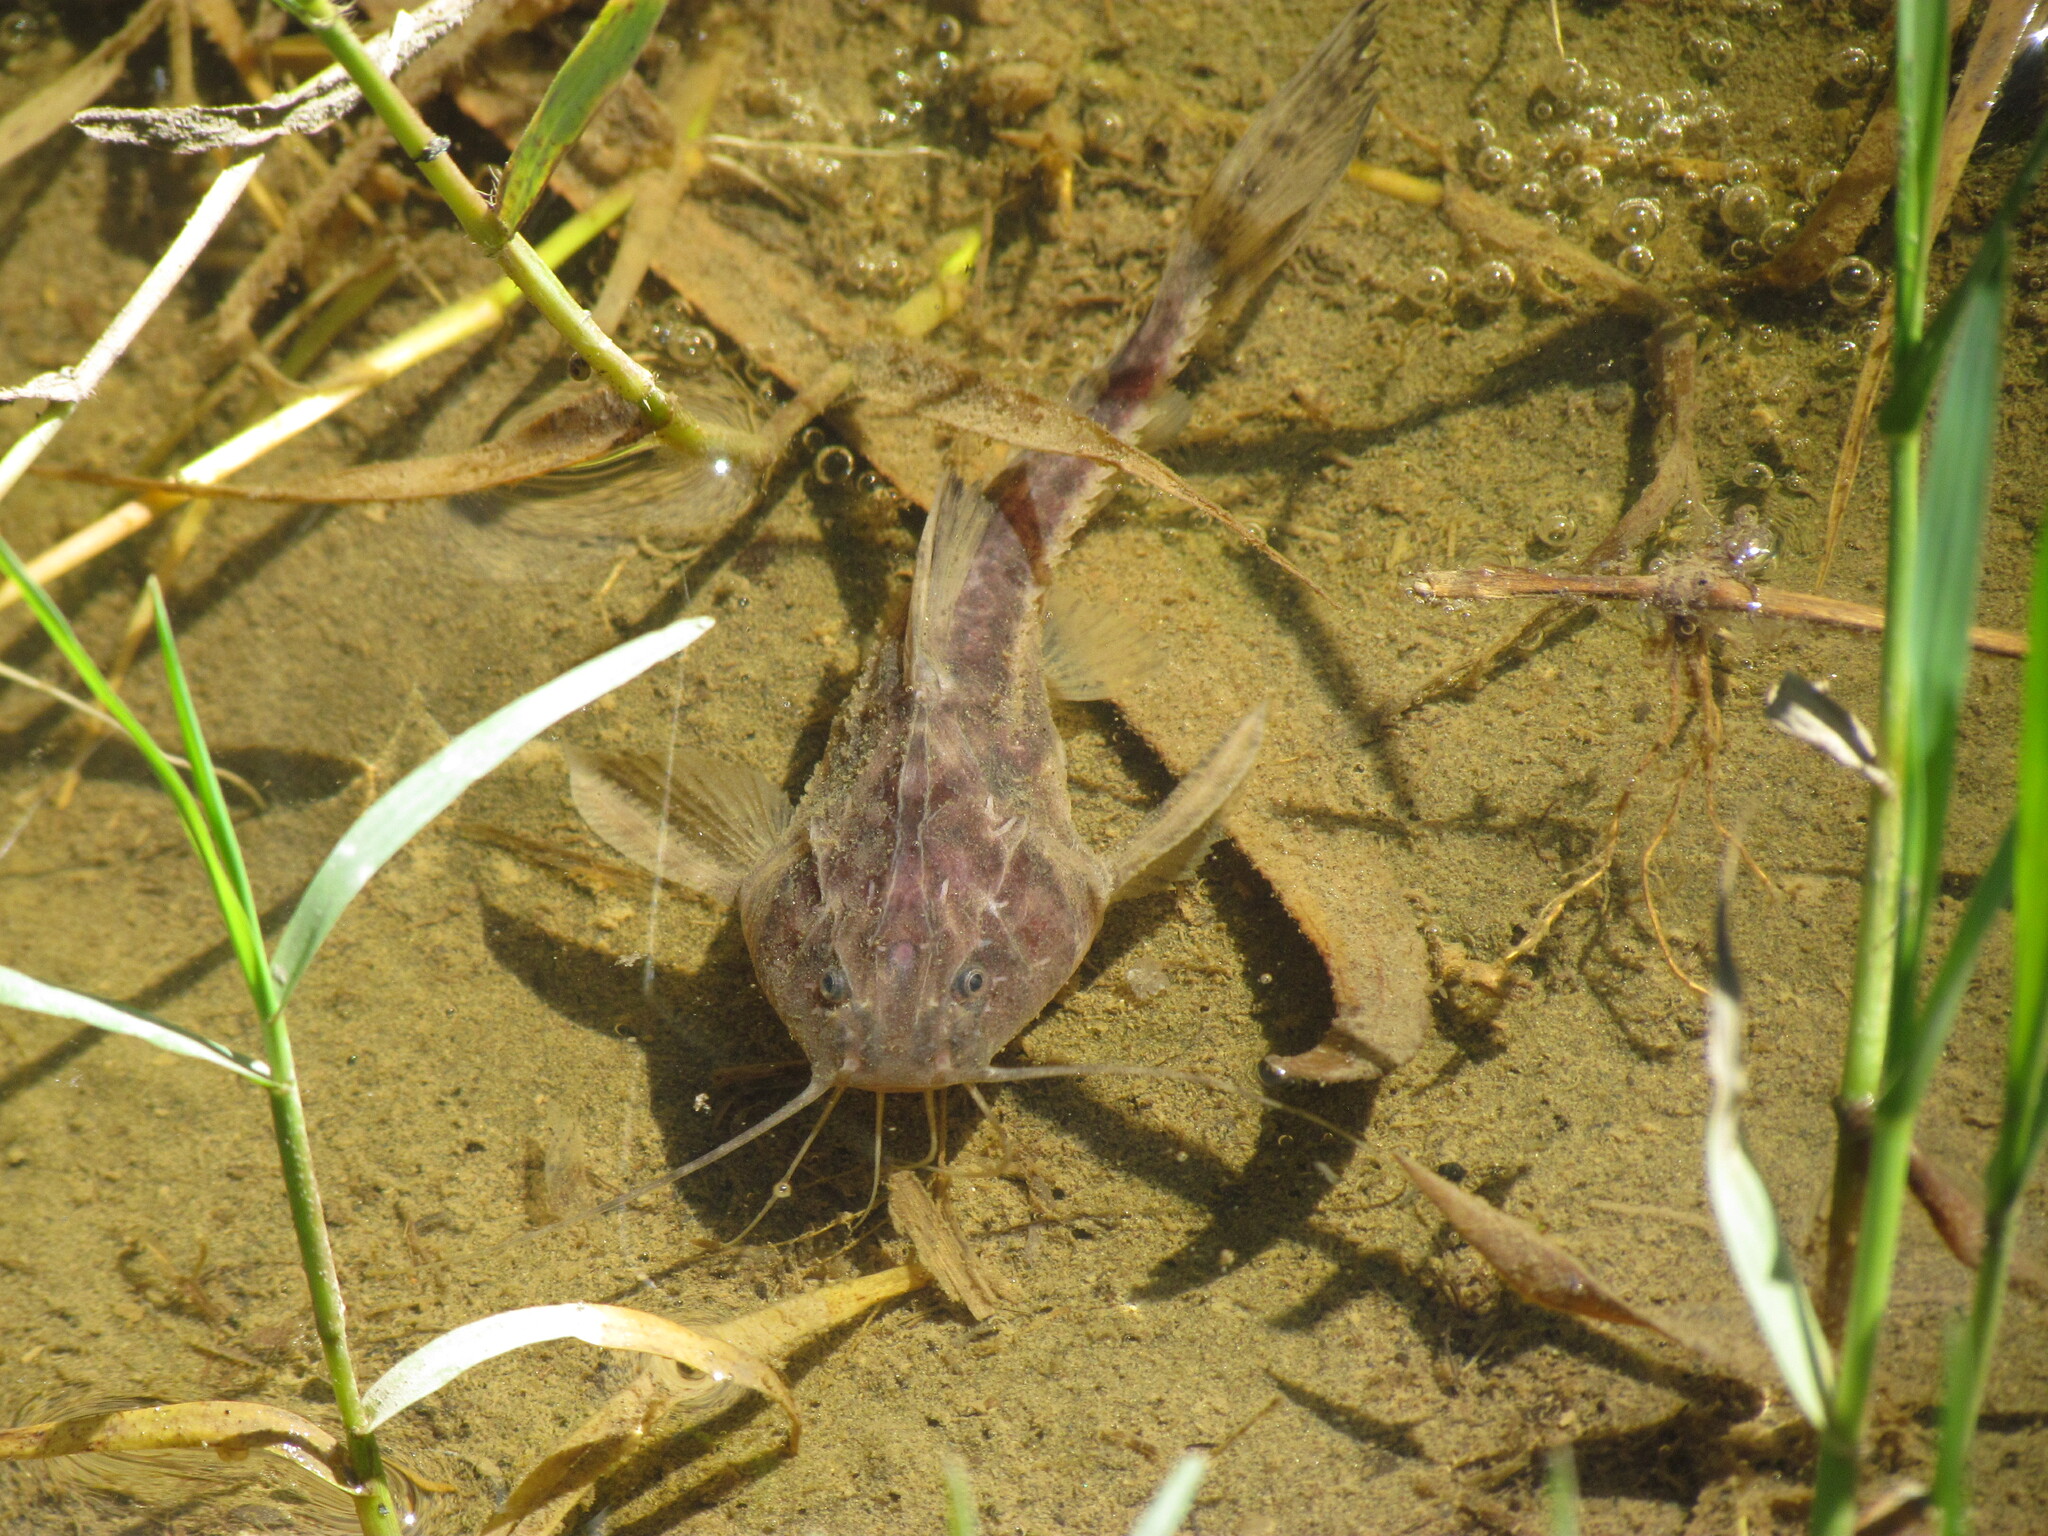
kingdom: Animalia
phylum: Chordata
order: Siluriformes
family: Doradidae
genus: Pterodoras
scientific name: Pterodoras granulosus
